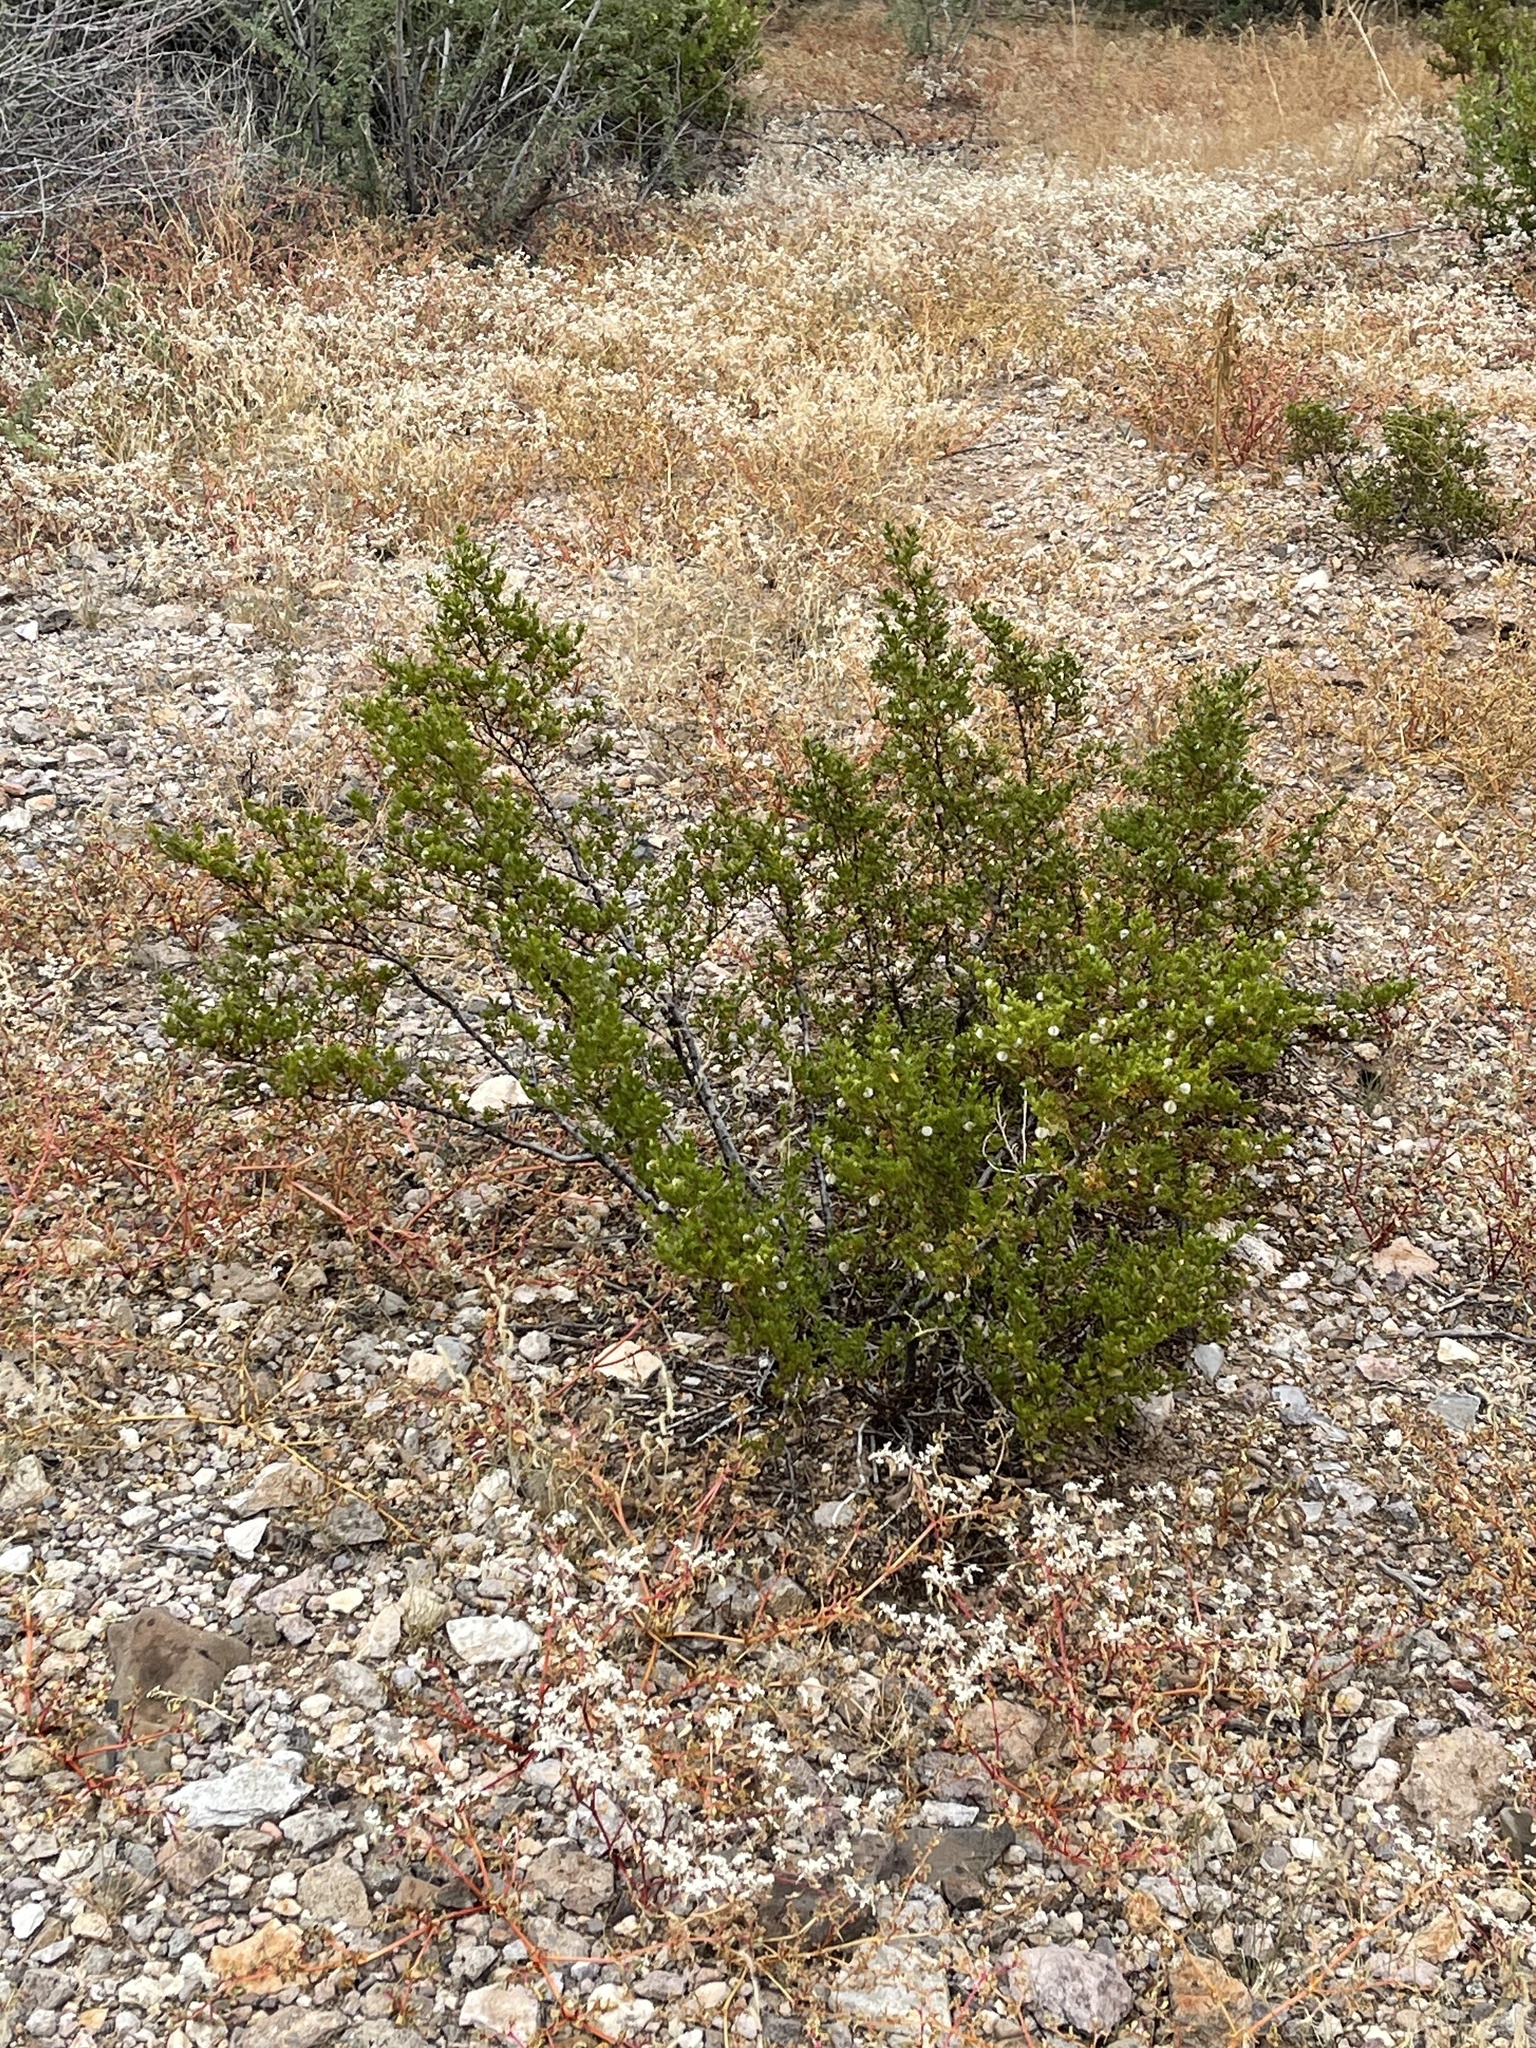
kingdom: Plantae
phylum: Tracheophyta
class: Magnoliopsida
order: Zygophyllales
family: Zygophyllaceae
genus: Larrea
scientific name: Larrea tridentata
